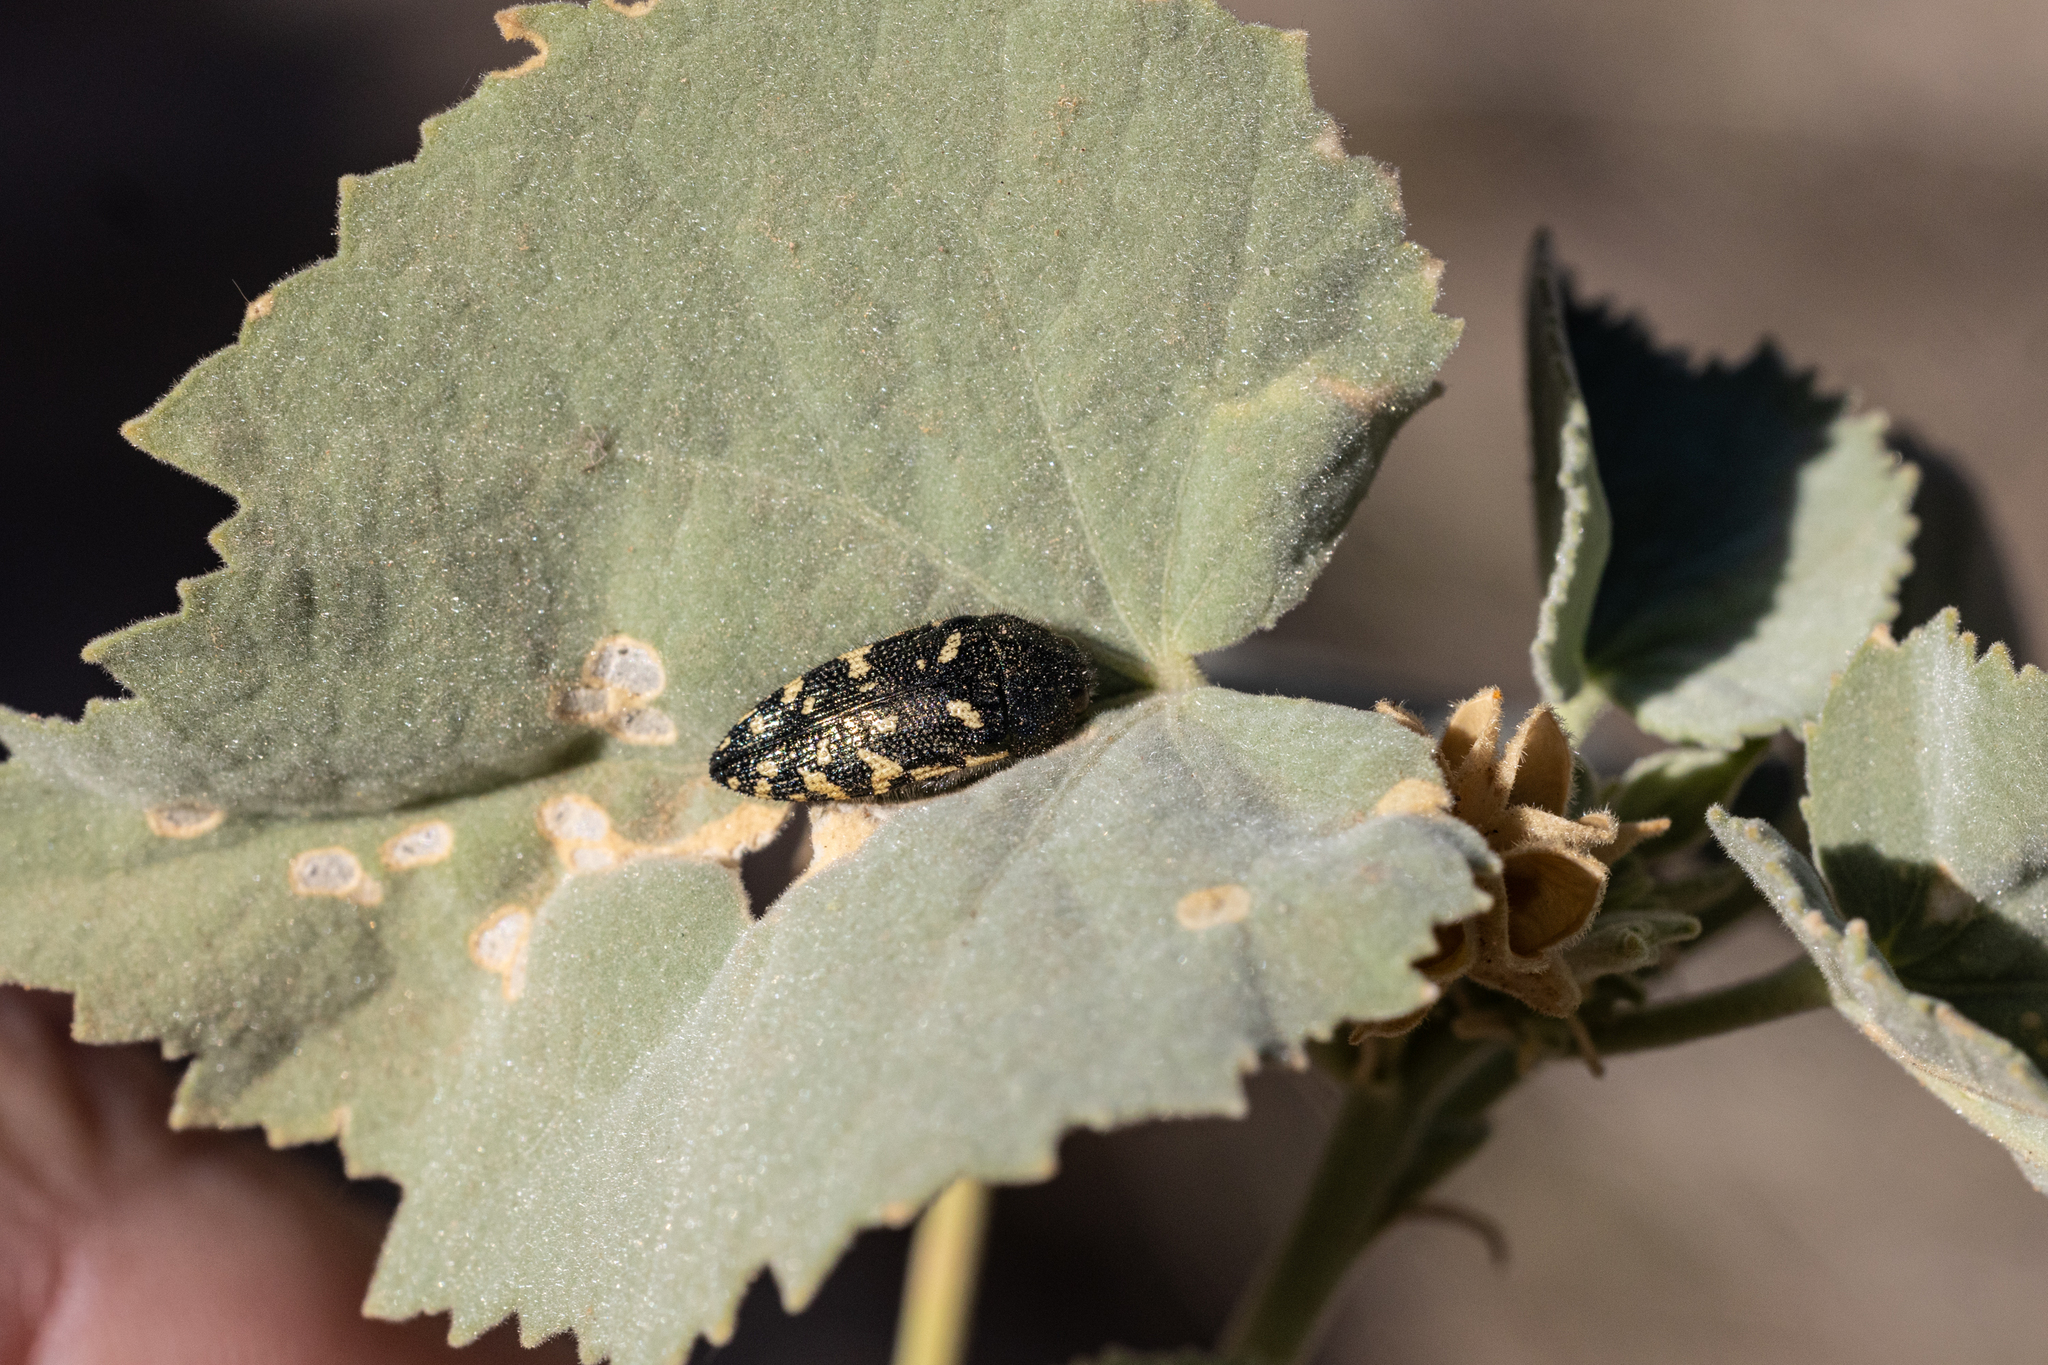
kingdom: Animalia
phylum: Arthropoda
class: Insecta
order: Coleoptera
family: Buprestidae
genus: Acmaeodera
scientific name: Acmaeodera flavopicta
